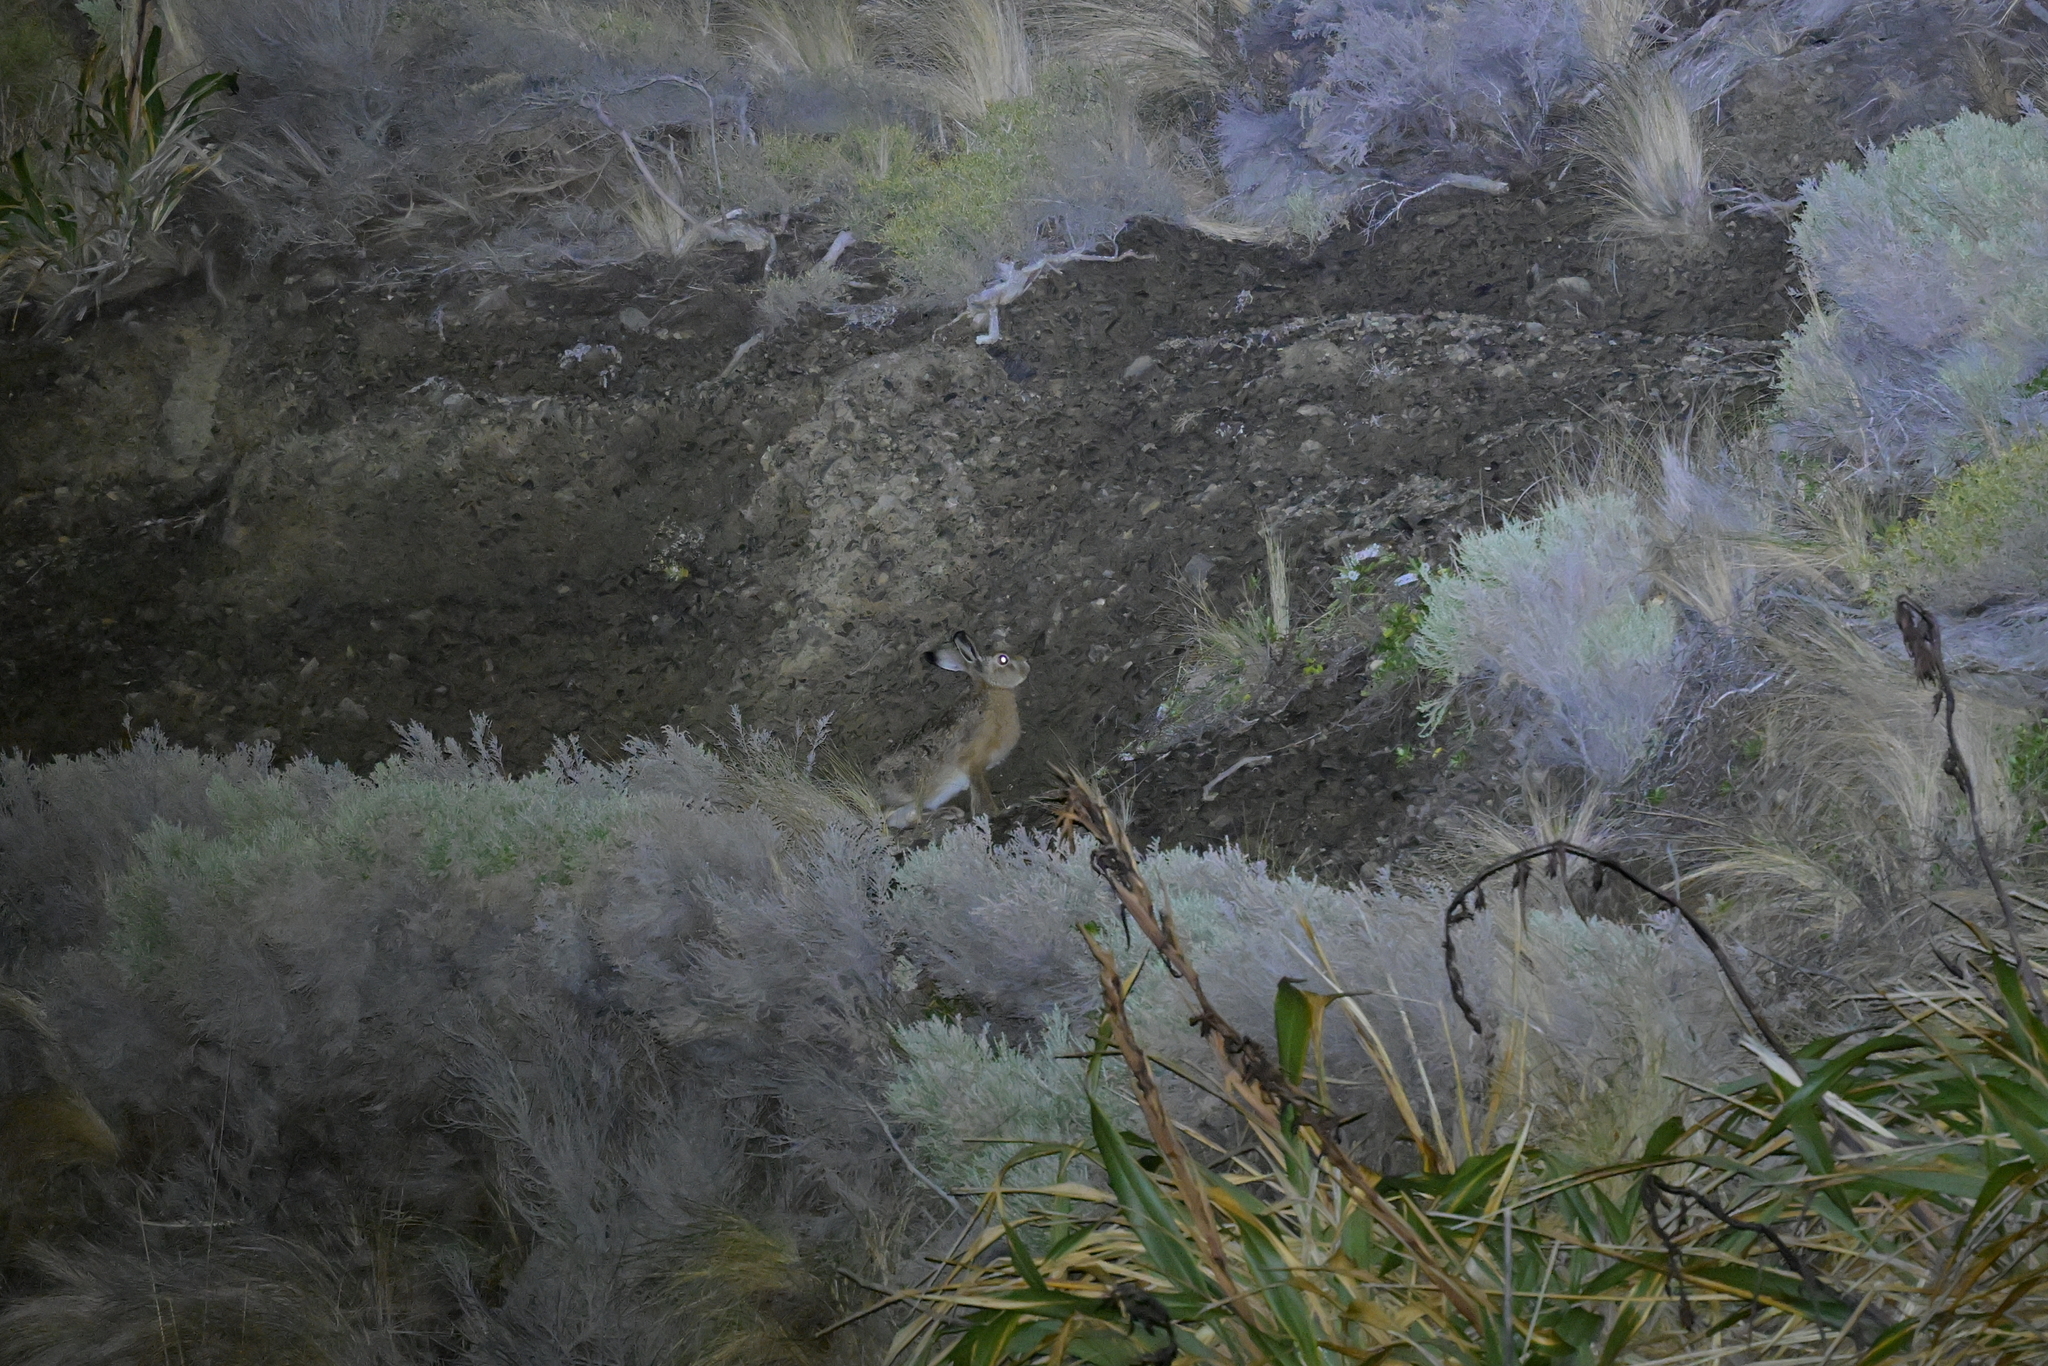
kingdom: Animalia
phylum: Chordata
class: Mammalia
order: Lagomorpha
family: Leporidae
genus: Lepus
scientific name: Lepus europaeus
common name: European hare
